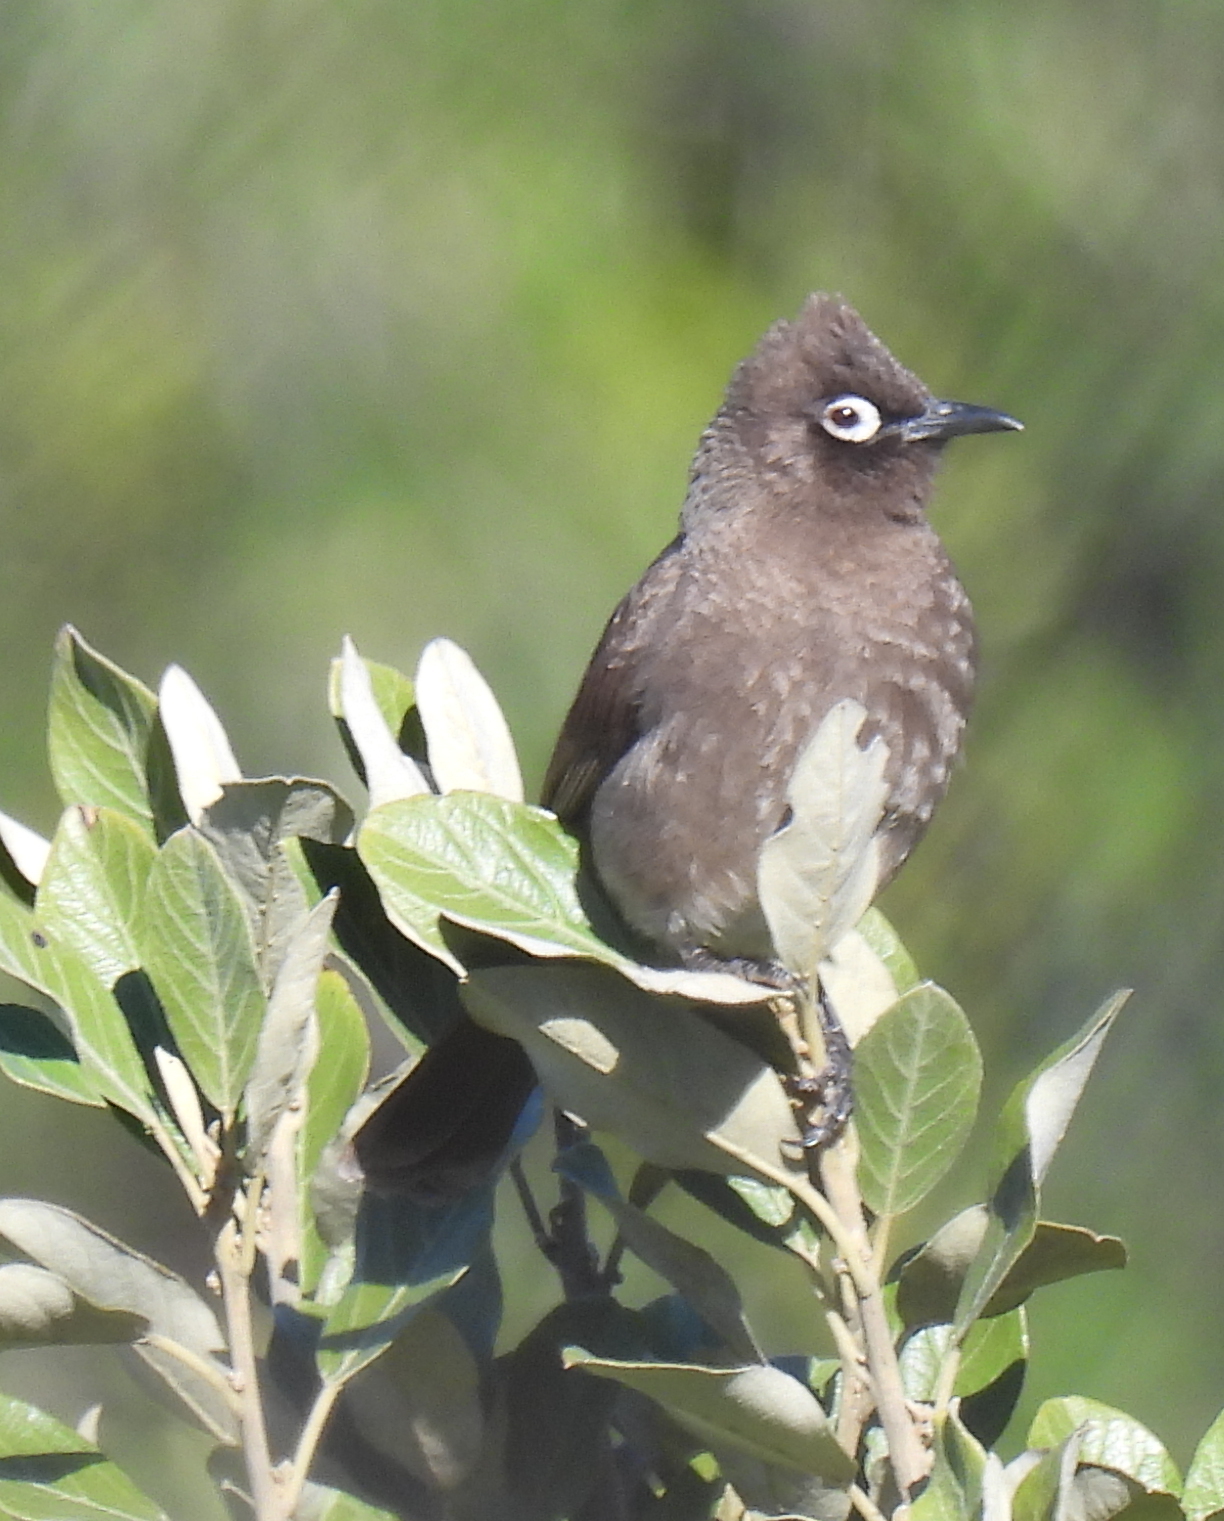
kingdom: Animalia
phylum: Chordata
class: Aves
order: Passeriformes
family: Pycnonotidae
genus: Pycnonotus
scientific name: Pycnonotus capensis
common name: Cape bulbul
